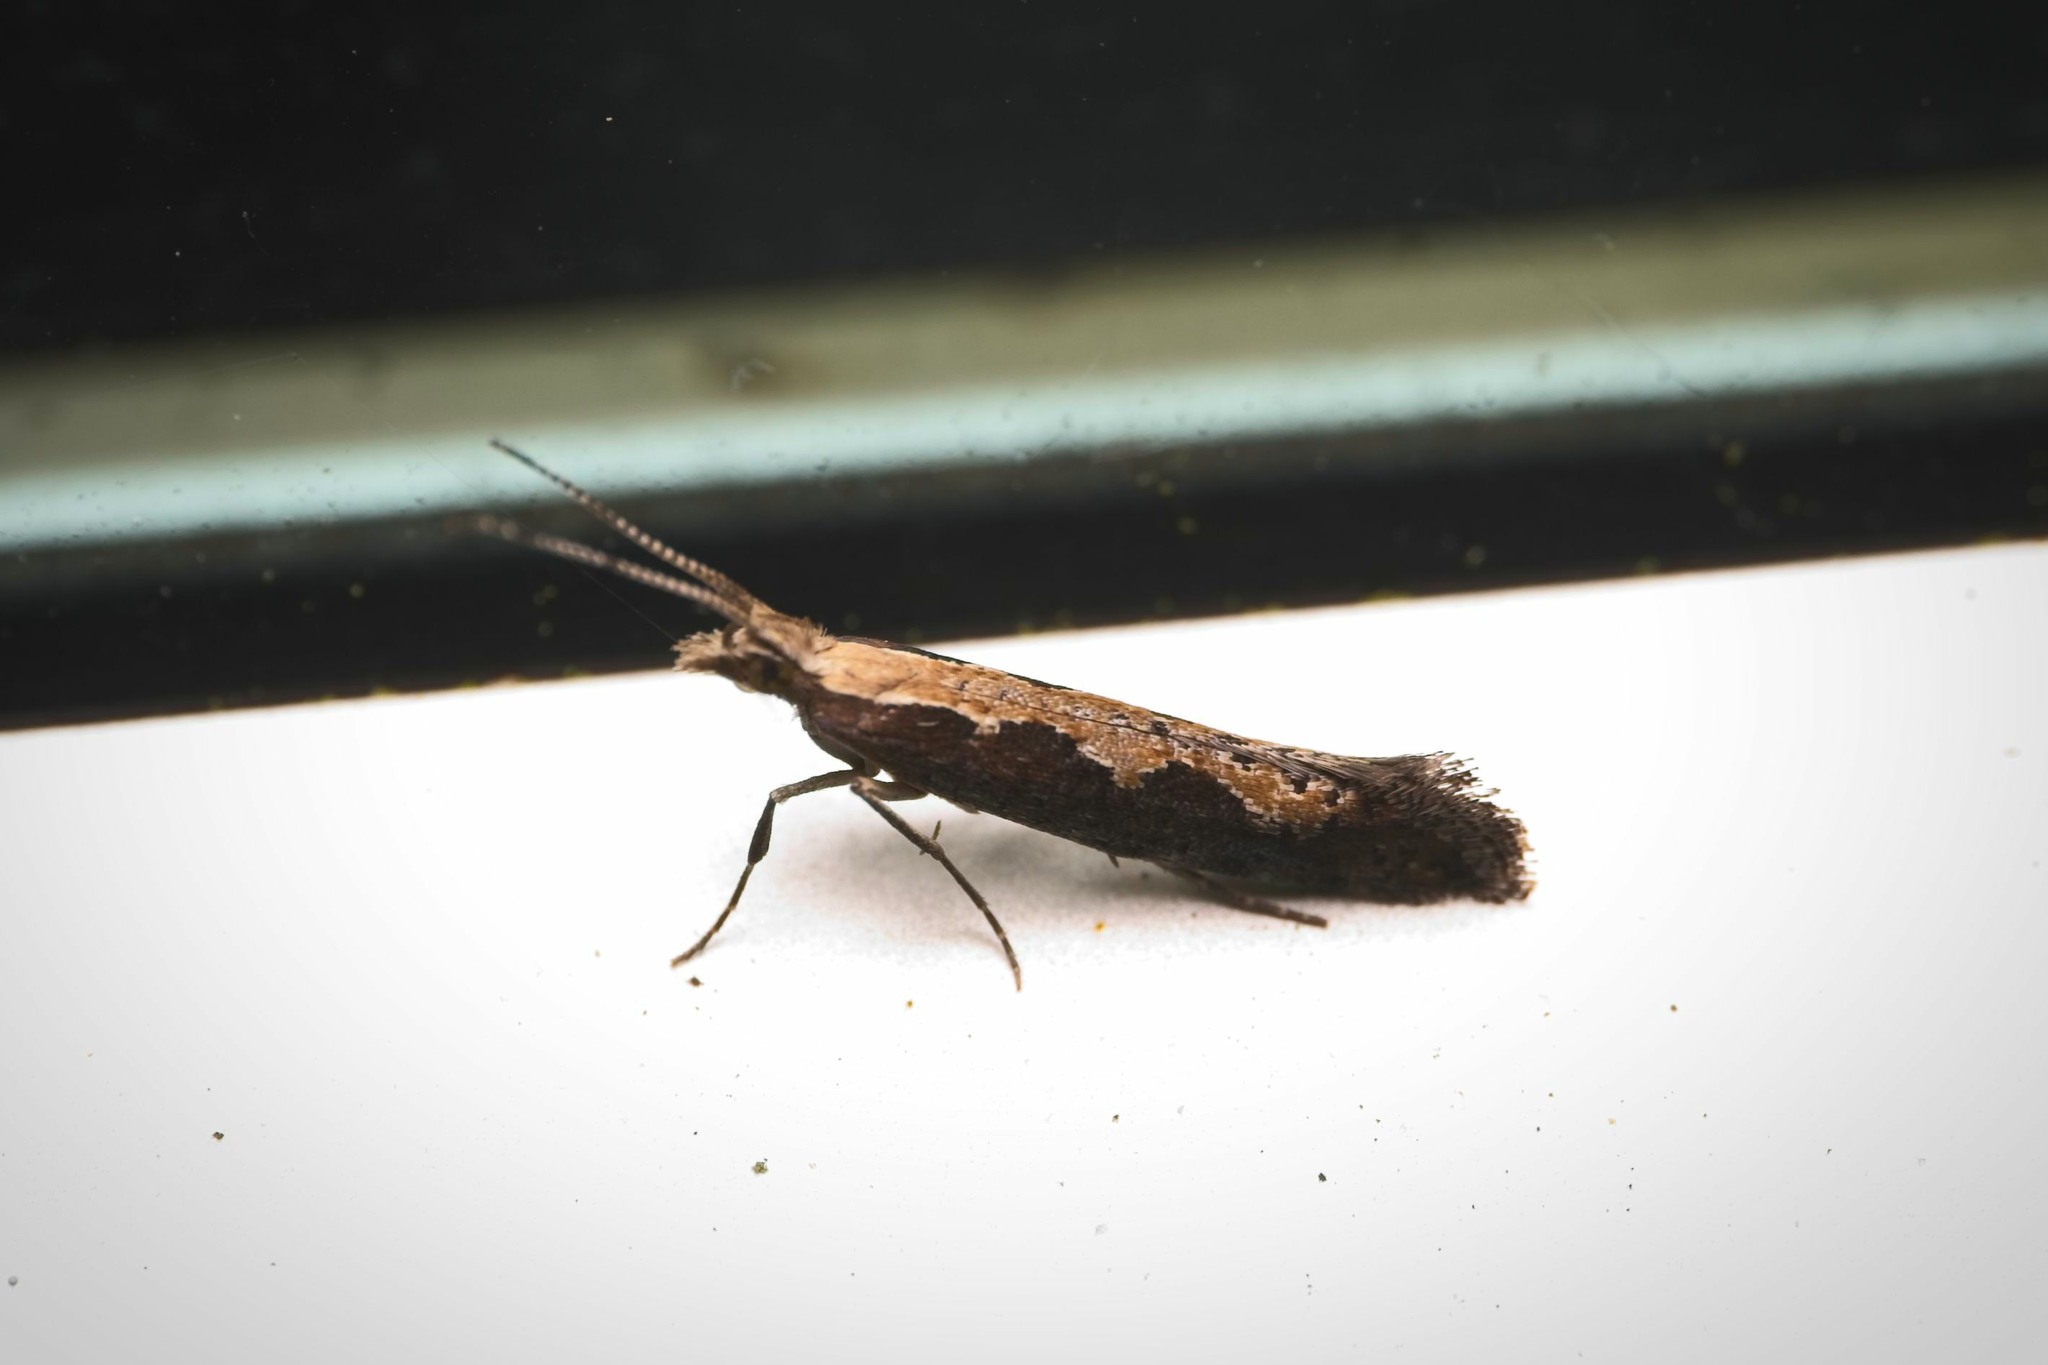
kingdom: Animalia
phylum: Arthropoda
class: Insecta
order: Lepidoptera
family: Plutellidae
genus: Plutella
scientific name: Plutella xylostella
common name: Diamond-back moth
